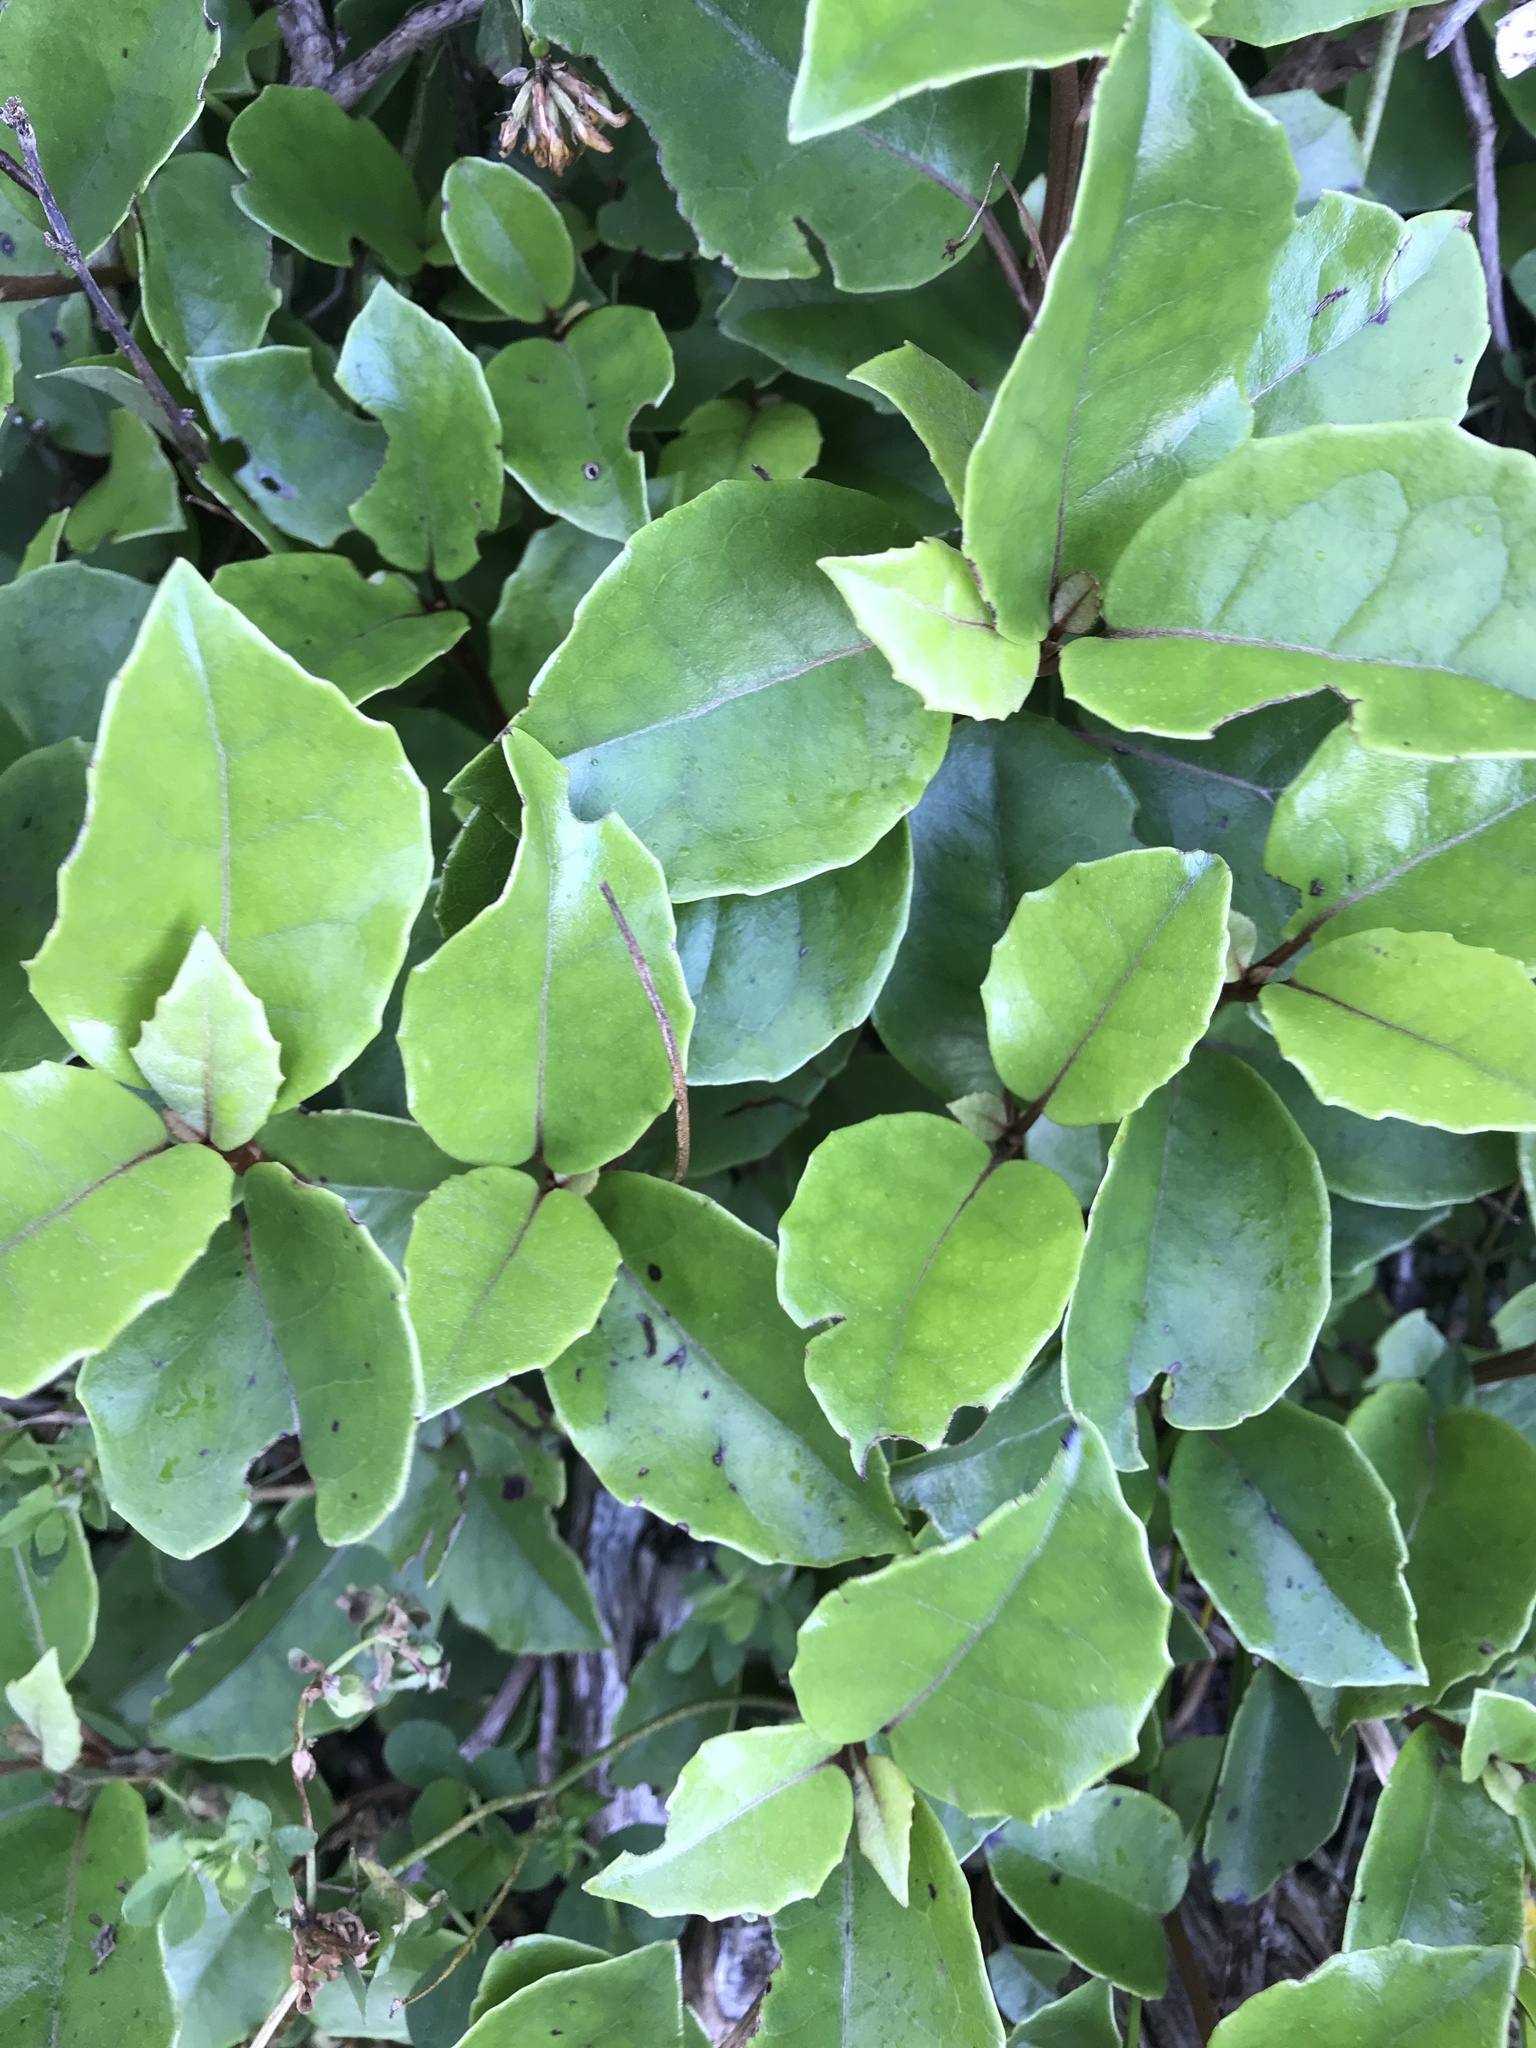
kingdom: Plantae
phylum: Tracheophyta
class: Magnoliopsida
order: Asterales
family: Asteraceae
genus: Olearia
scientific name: Olearia arborescens
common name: Glossy tree daisy
